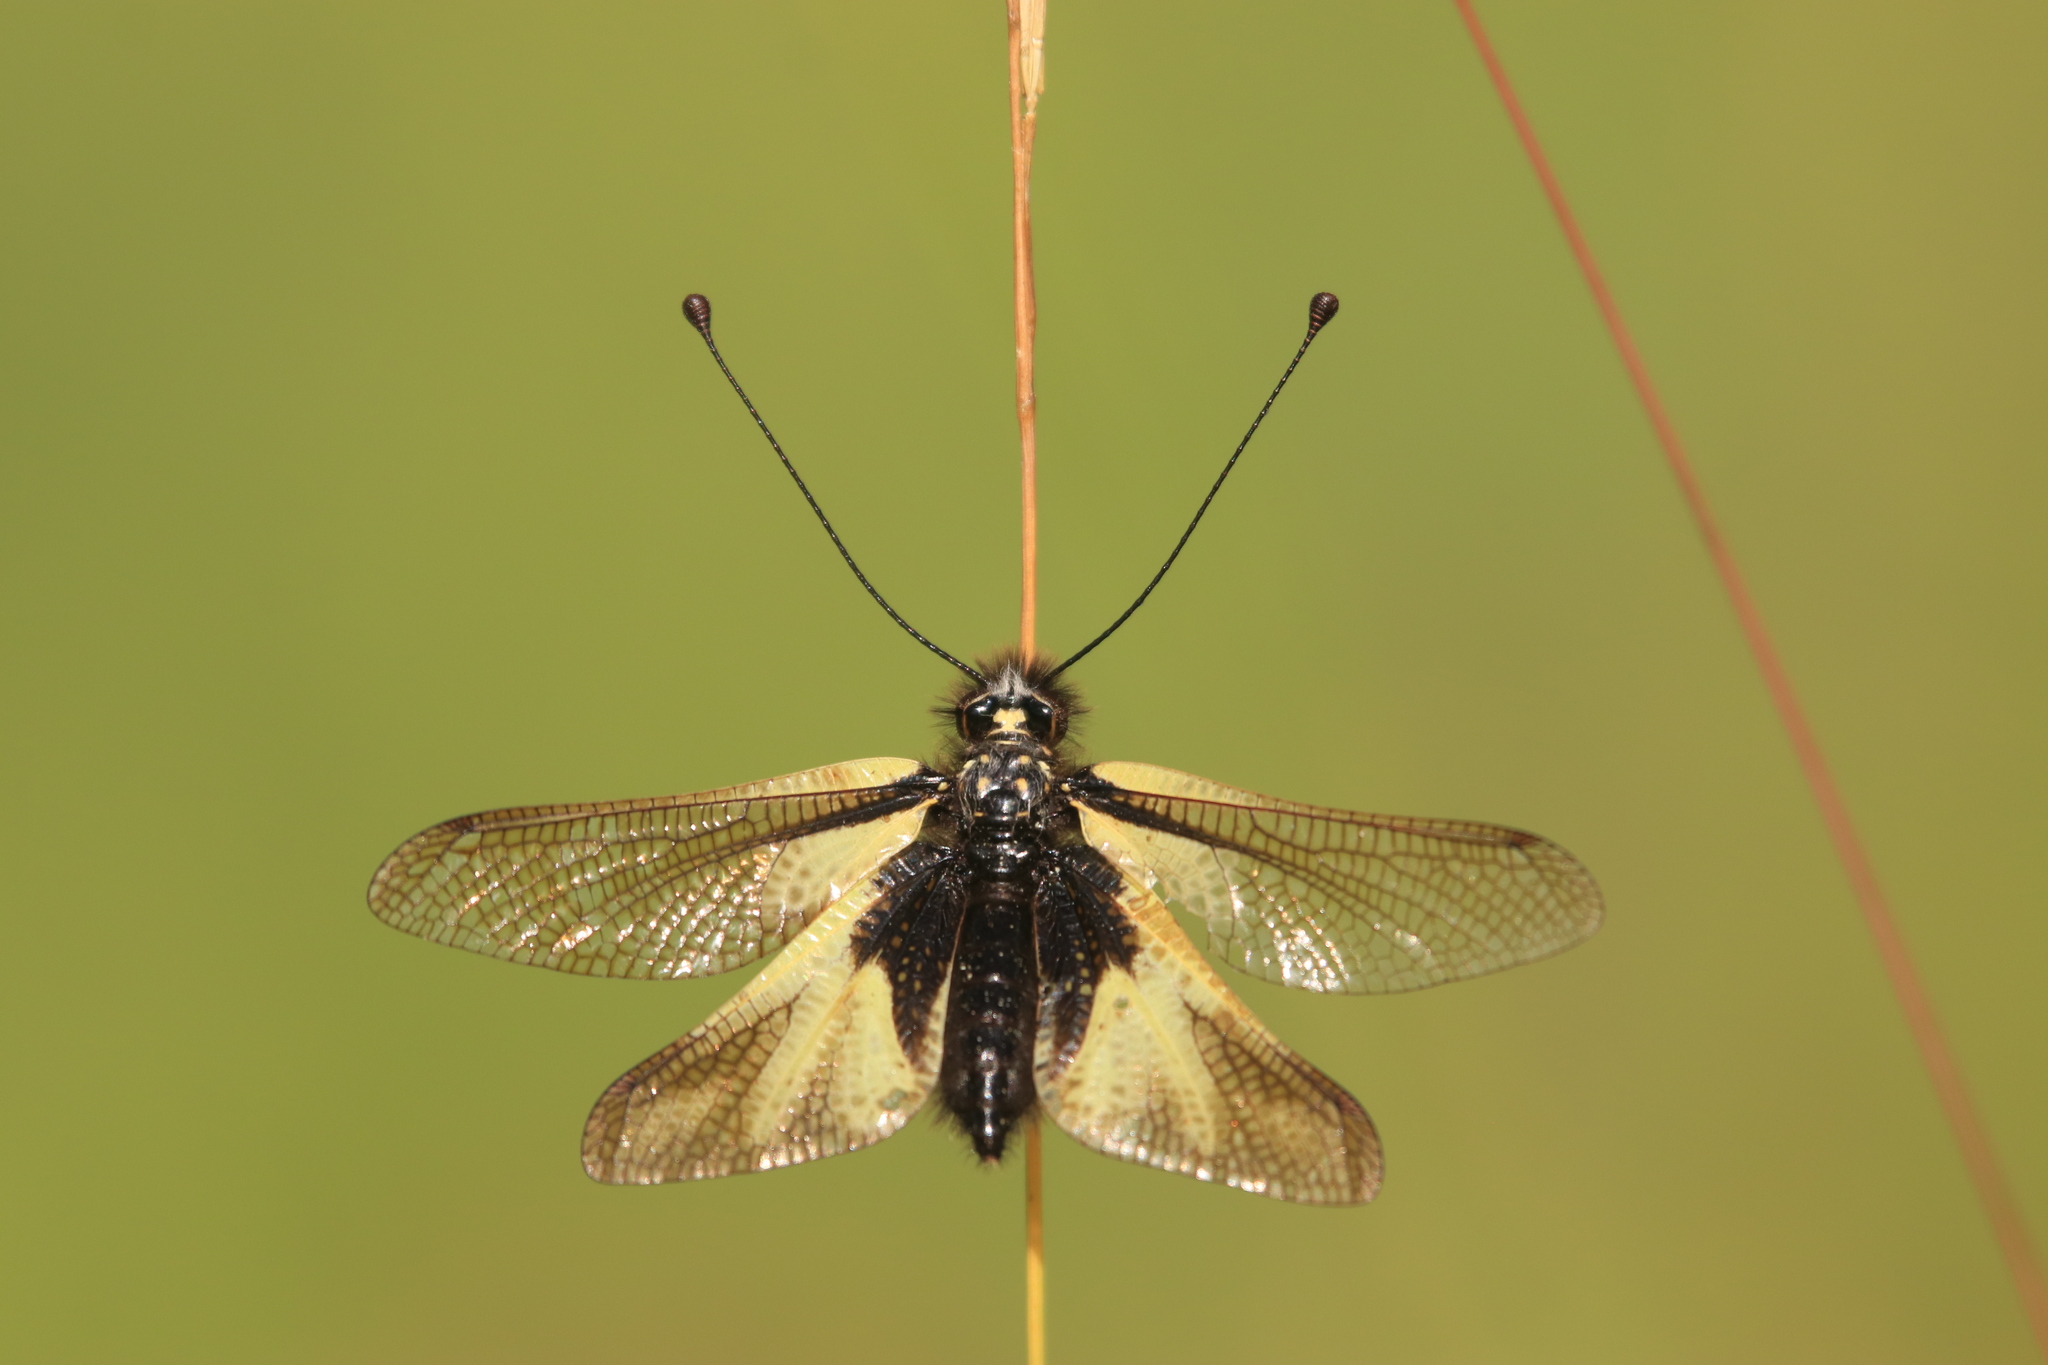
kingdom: Animalia
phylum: Arthropoda
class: Insecta
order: Neuroptera
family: Ascalaphidae
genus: Libelloides
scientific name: Libelloides coccajus
